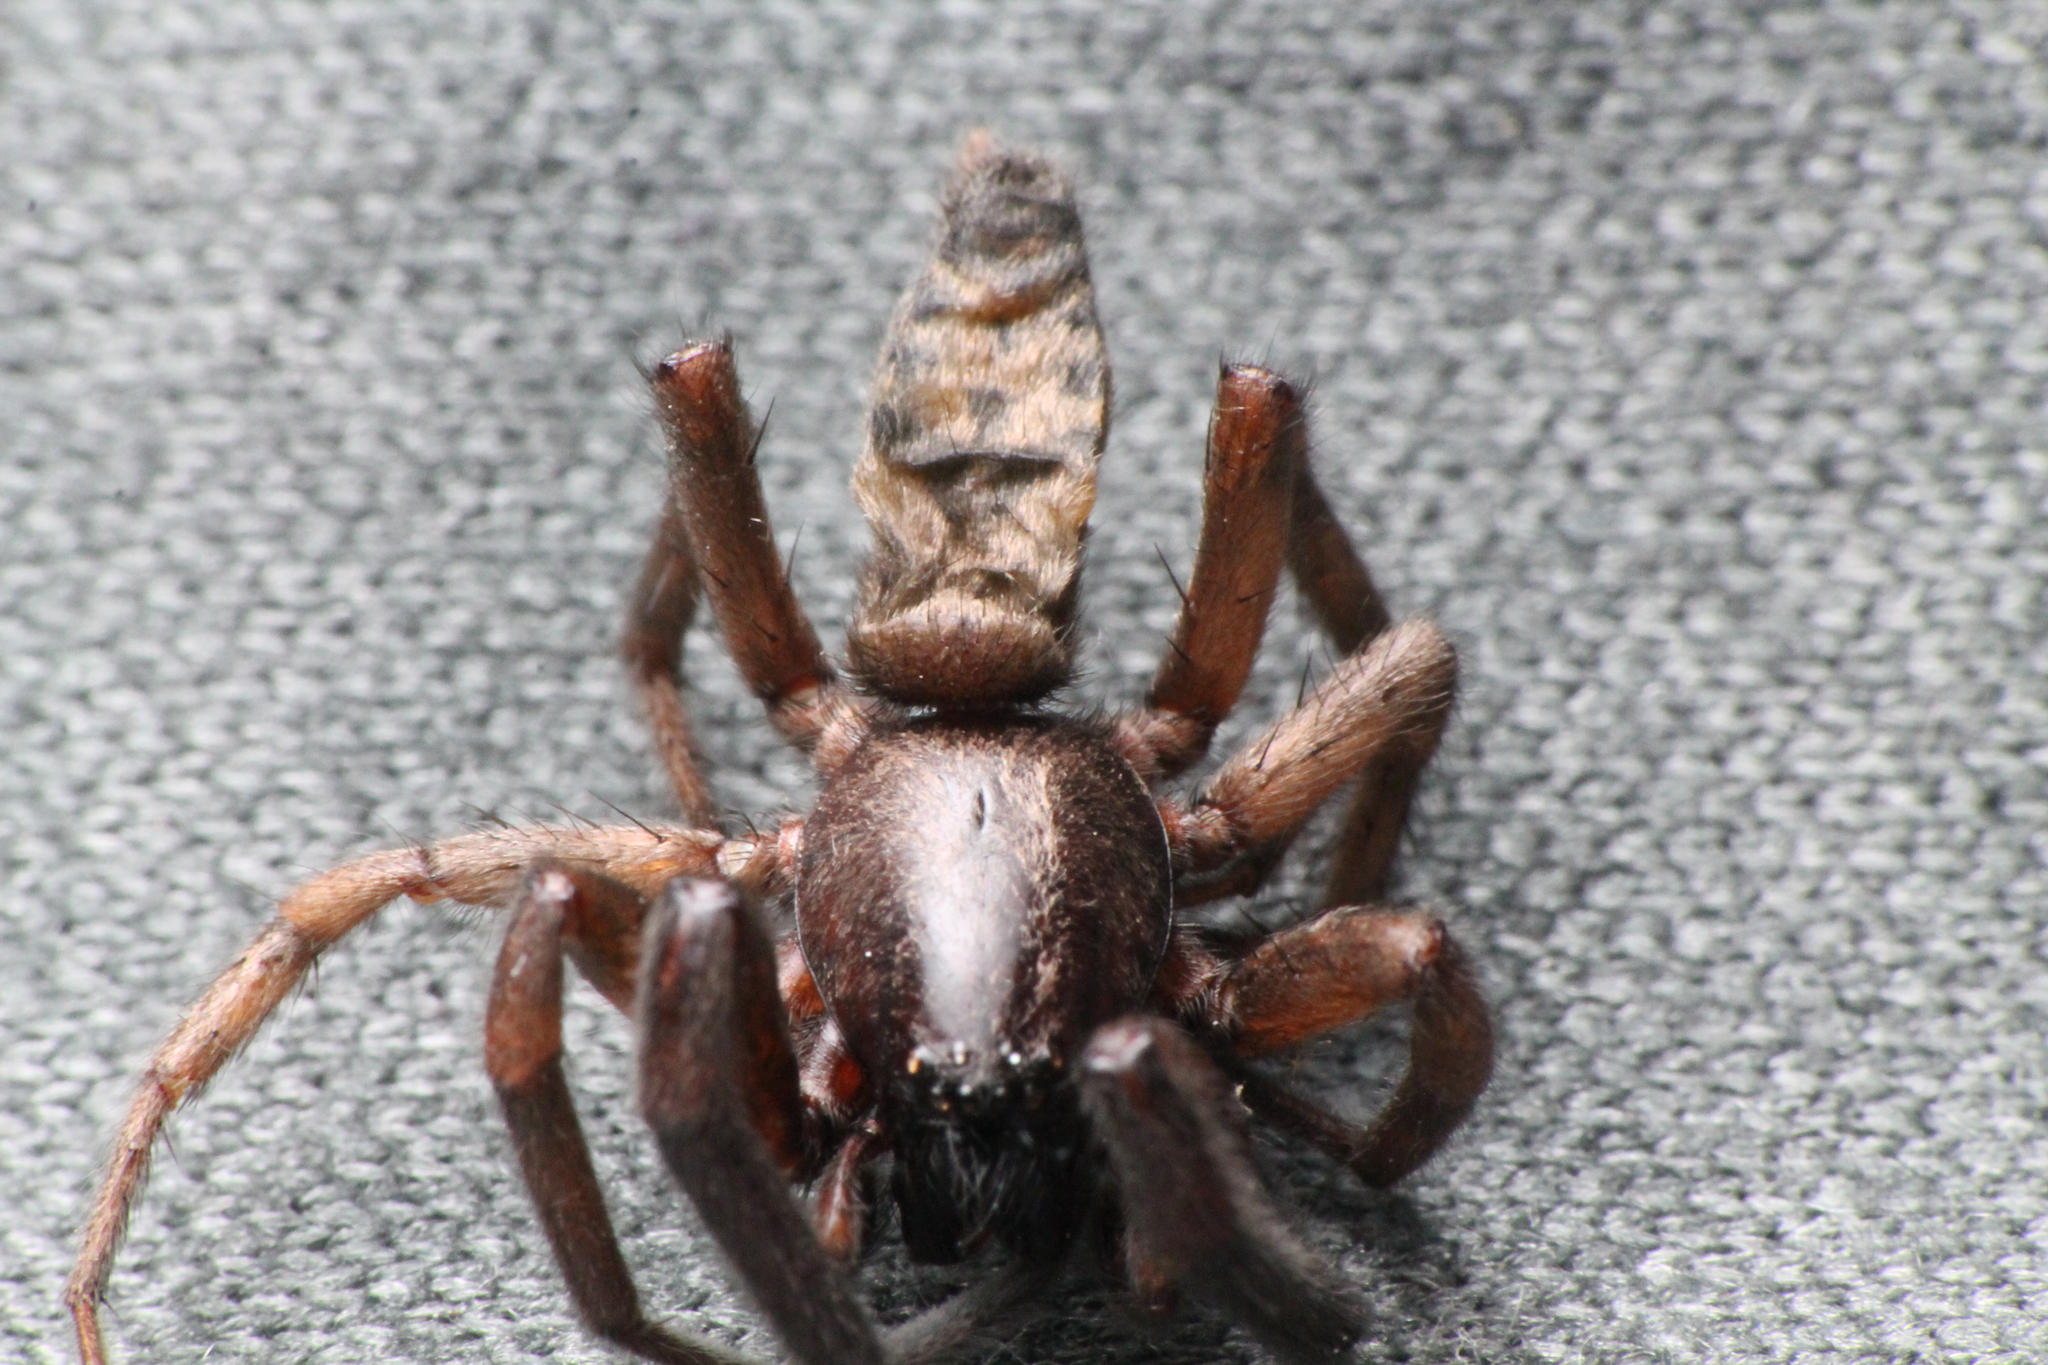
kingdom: Animalia
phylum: Arthropoda
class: Arachnida
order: Araneae
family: Gnaphosidae
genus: Intruda
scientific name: Intruda signata
